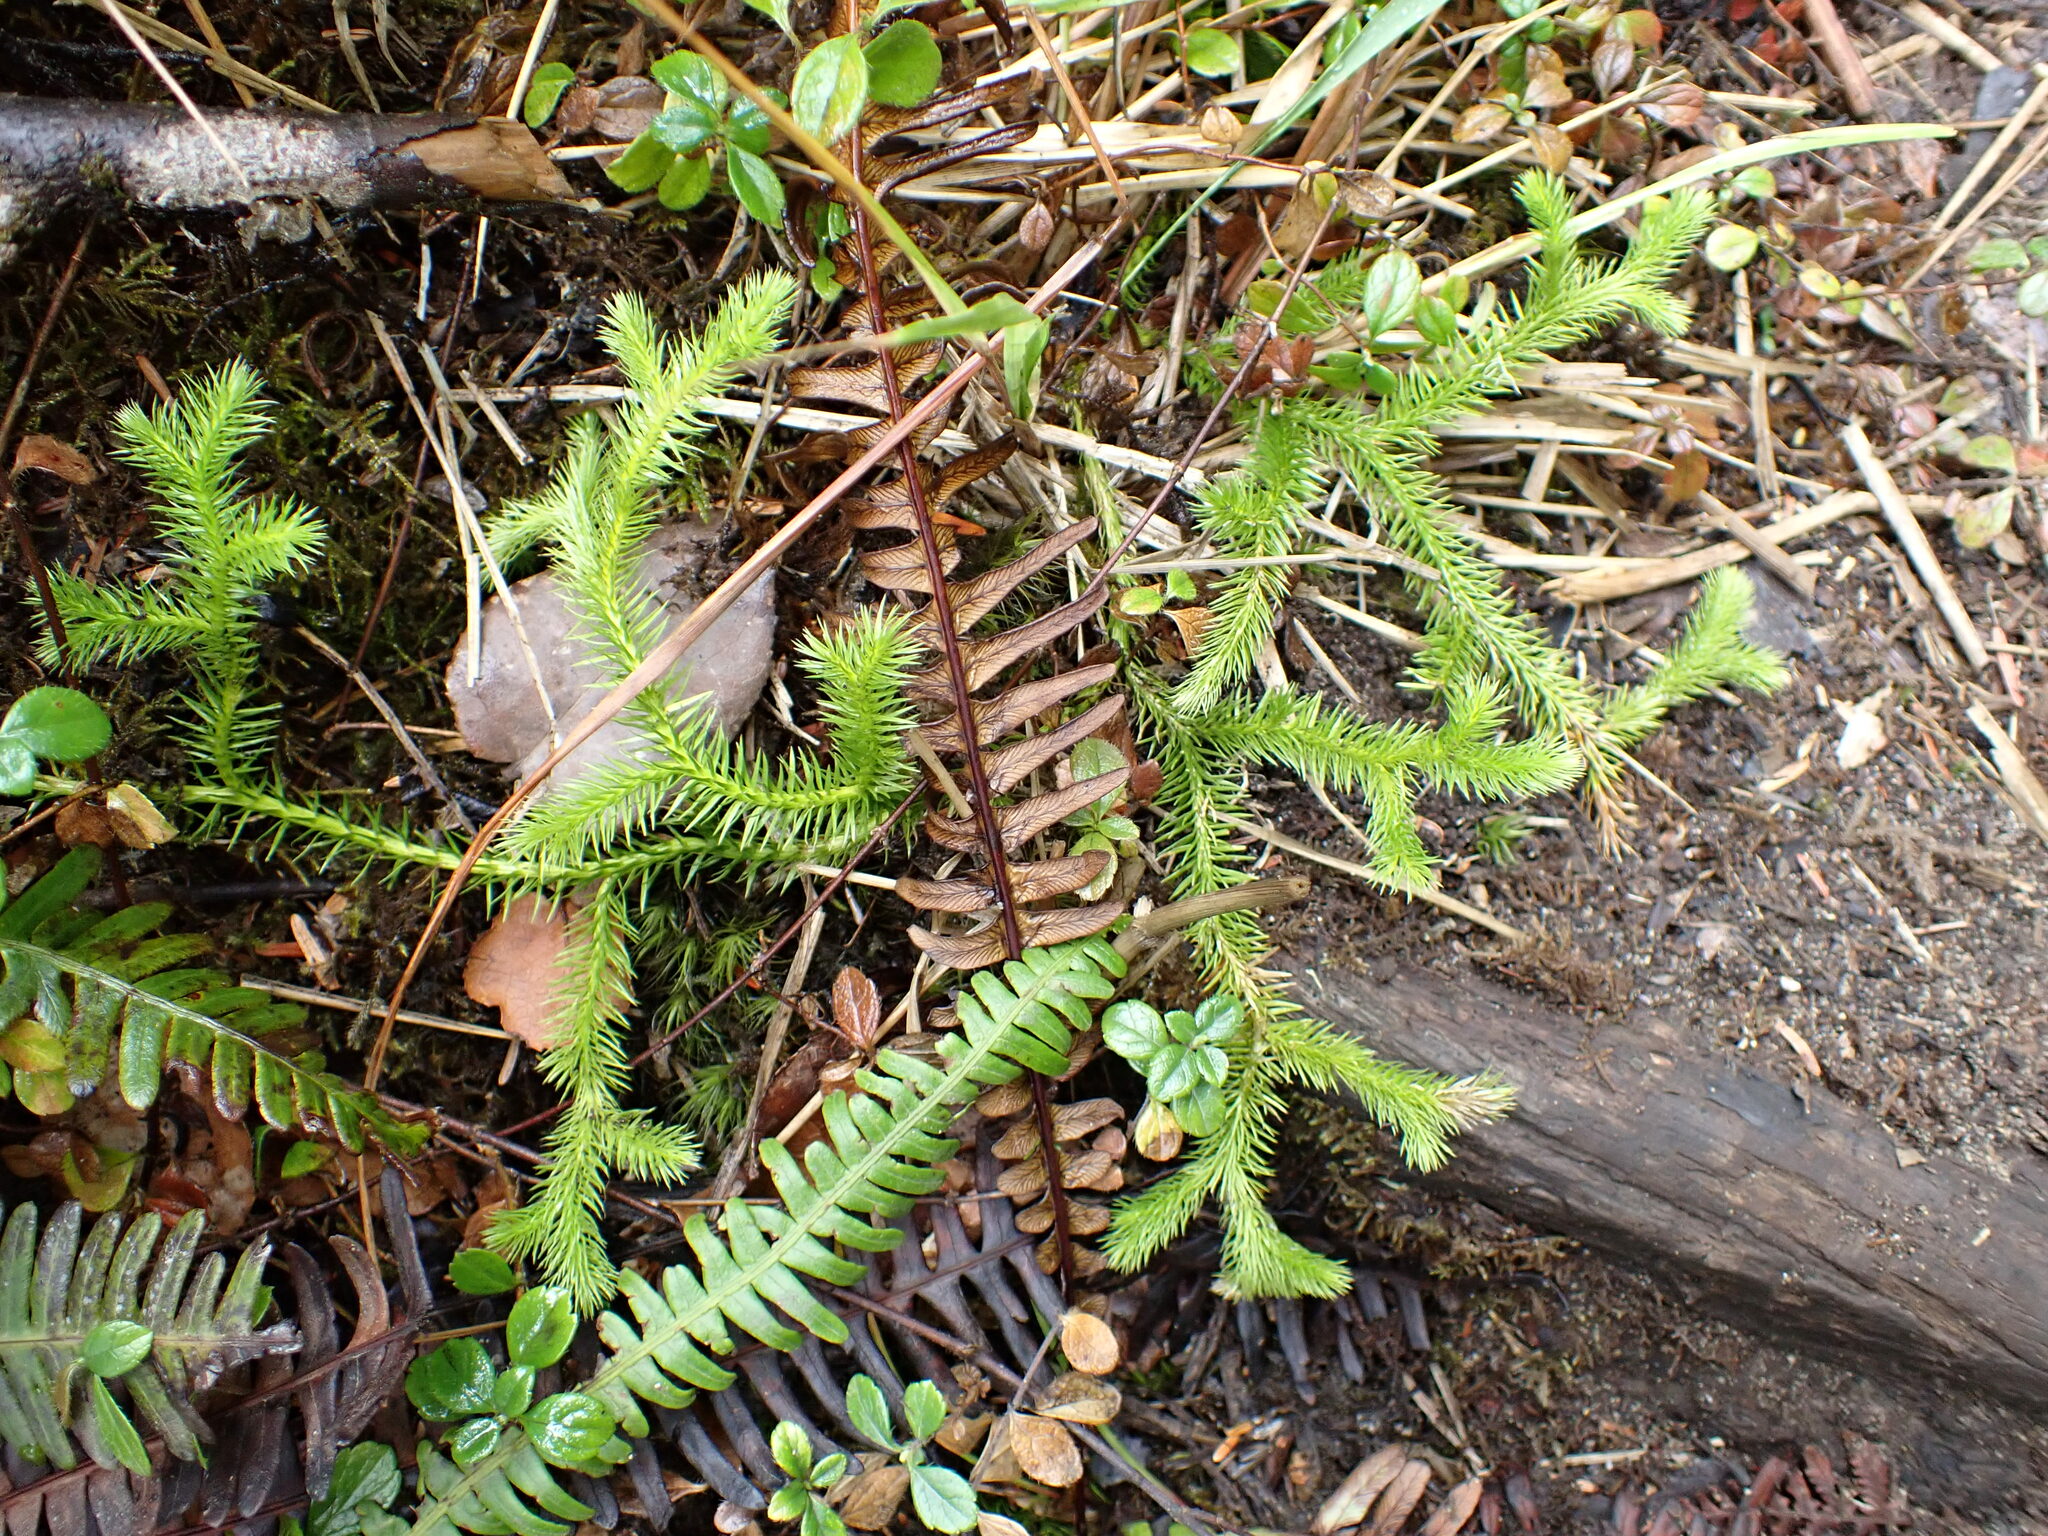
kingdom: Plantae
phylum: Tracheophyta
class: Lycopodiopsida
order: Lycopodiales
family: Lycopodiaceae
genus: Lycopodium
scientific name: Lycopodium clavatum
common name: Stag's-horn clubmoss
